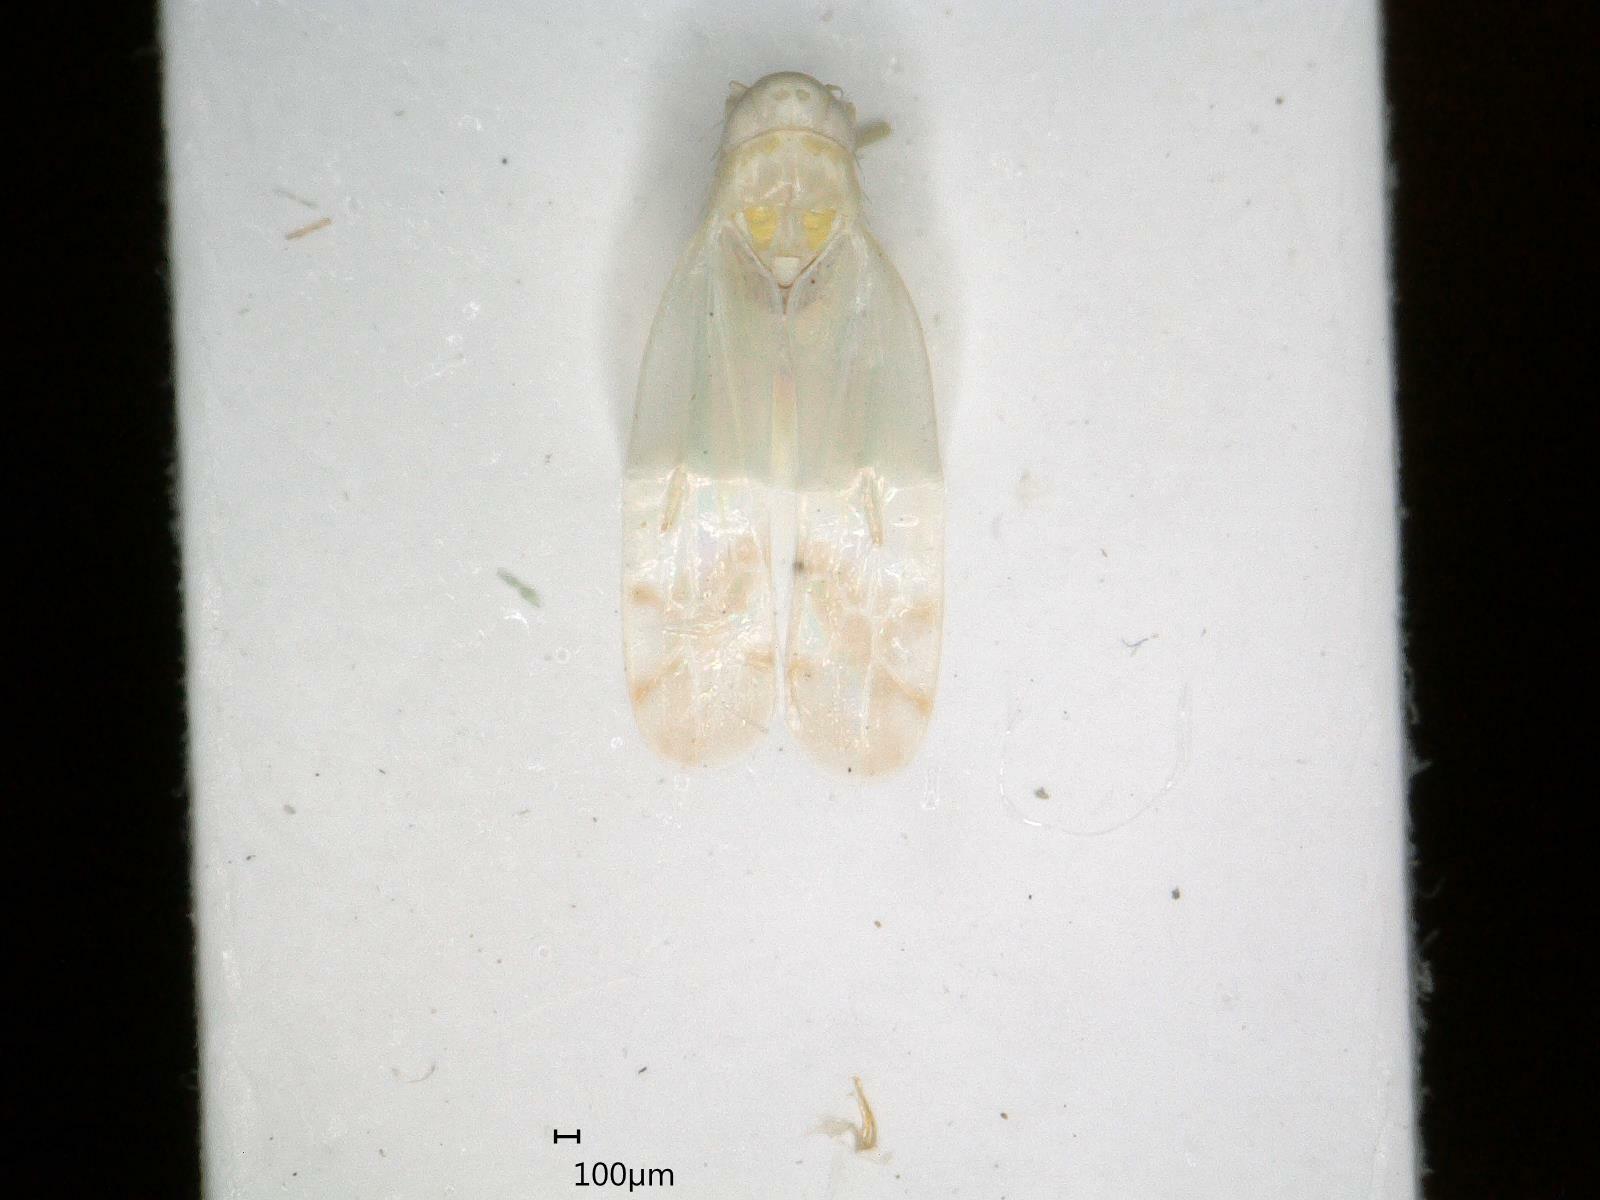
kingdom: Animalia
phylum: Arthropoda
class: Insecta
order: Hemiptera
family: Cicadellidae
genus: Ribautiana
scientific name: Ribautiana tenerrima
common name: Bramble leafhopper
